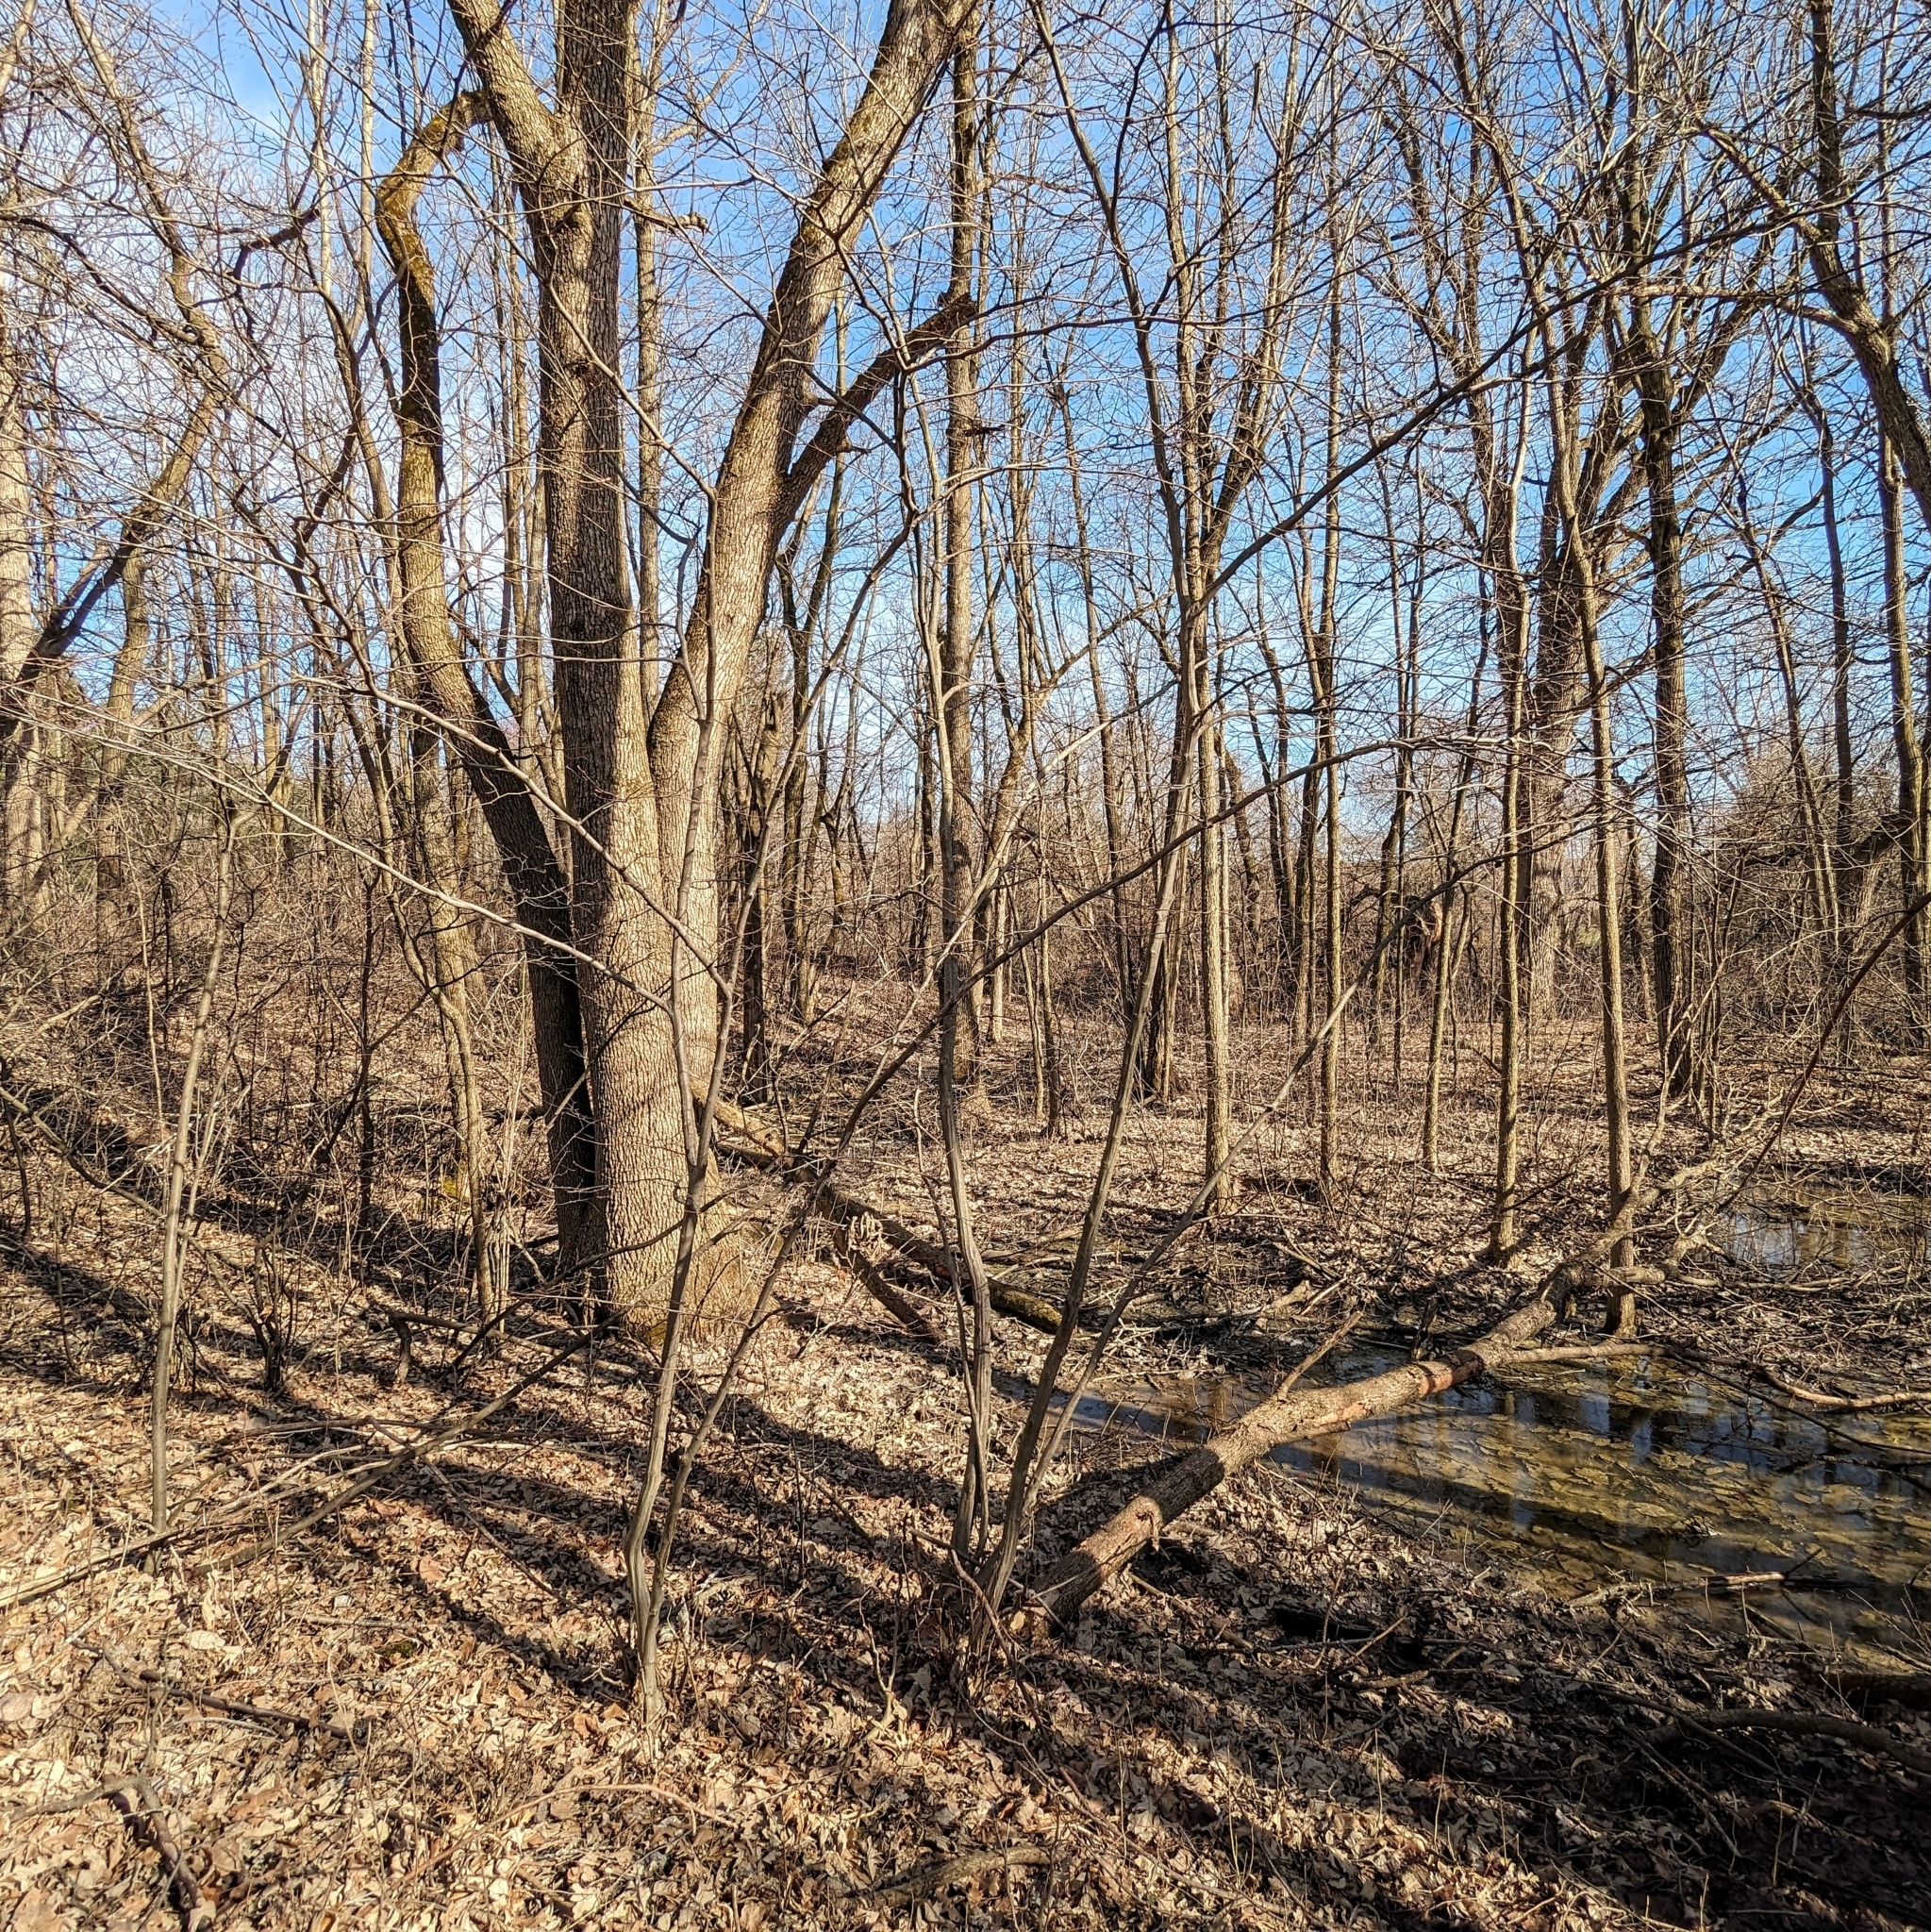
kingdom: Plantae
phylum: Tracheophyta
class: Magnoliopsida
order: Fagales
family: Betulaceae
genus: Carpinus
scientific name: Carpinus caroliniana
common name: American hornbeam
